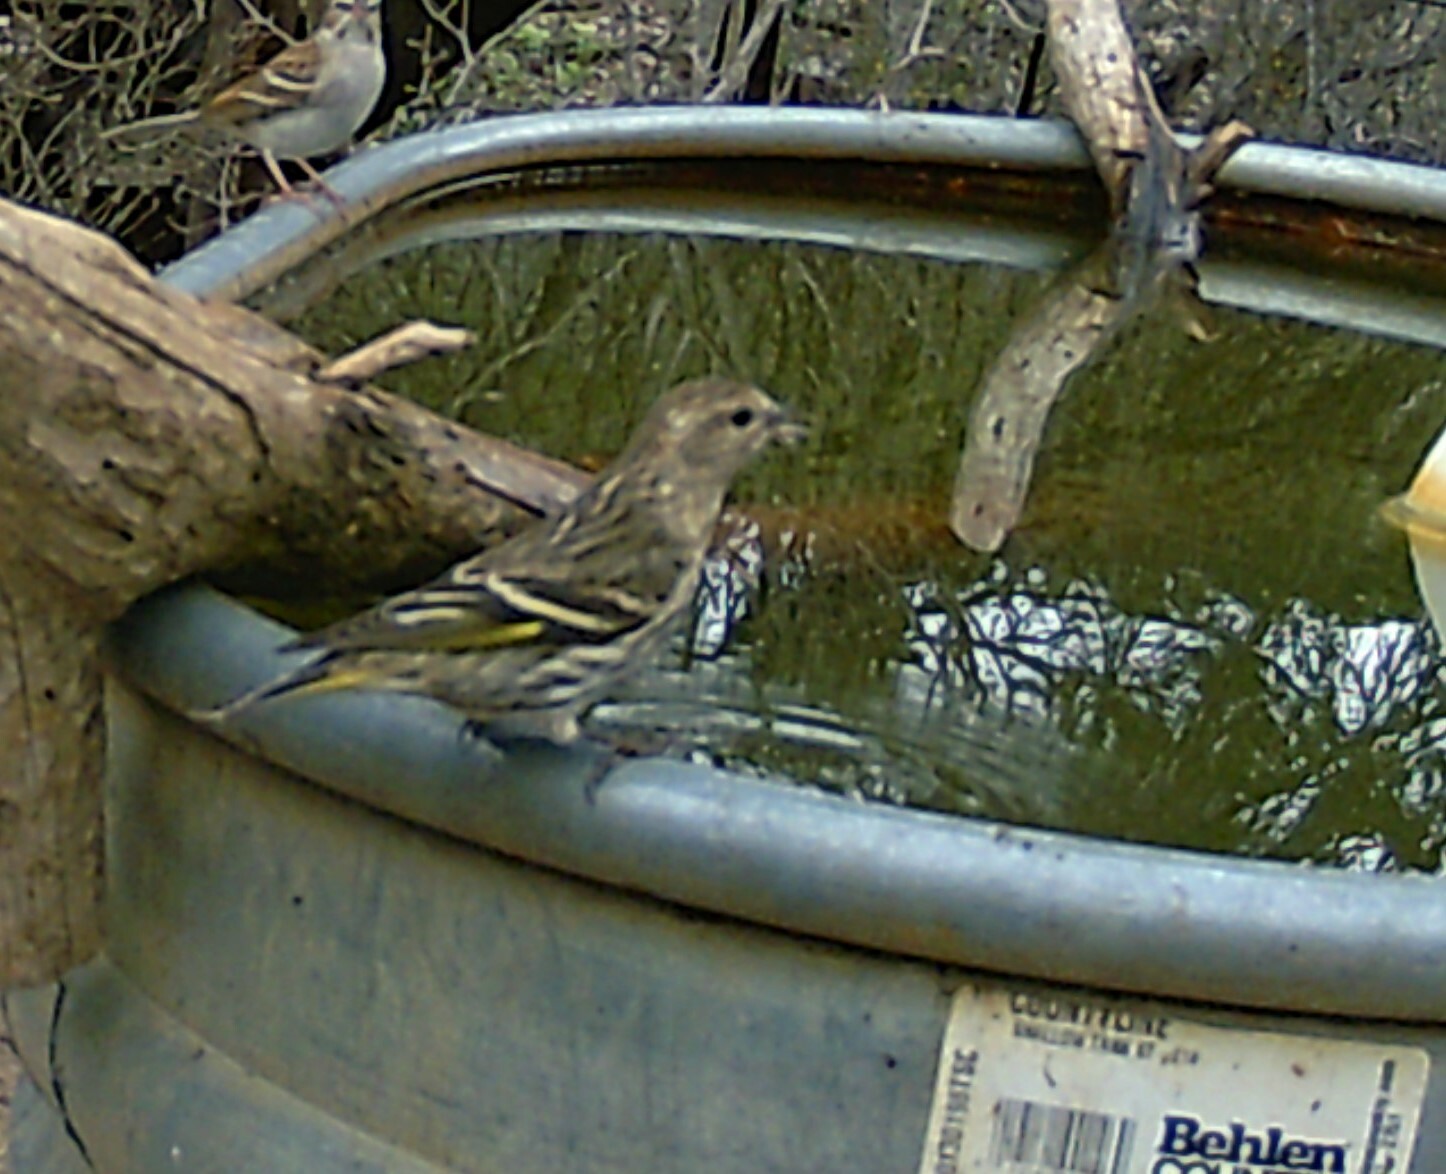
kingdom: Animalia
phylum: Chordata
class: Aves
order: Passeriformes
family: Fringillidae
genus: Spinus
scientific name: Spinus pinus
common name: Pine siskin
